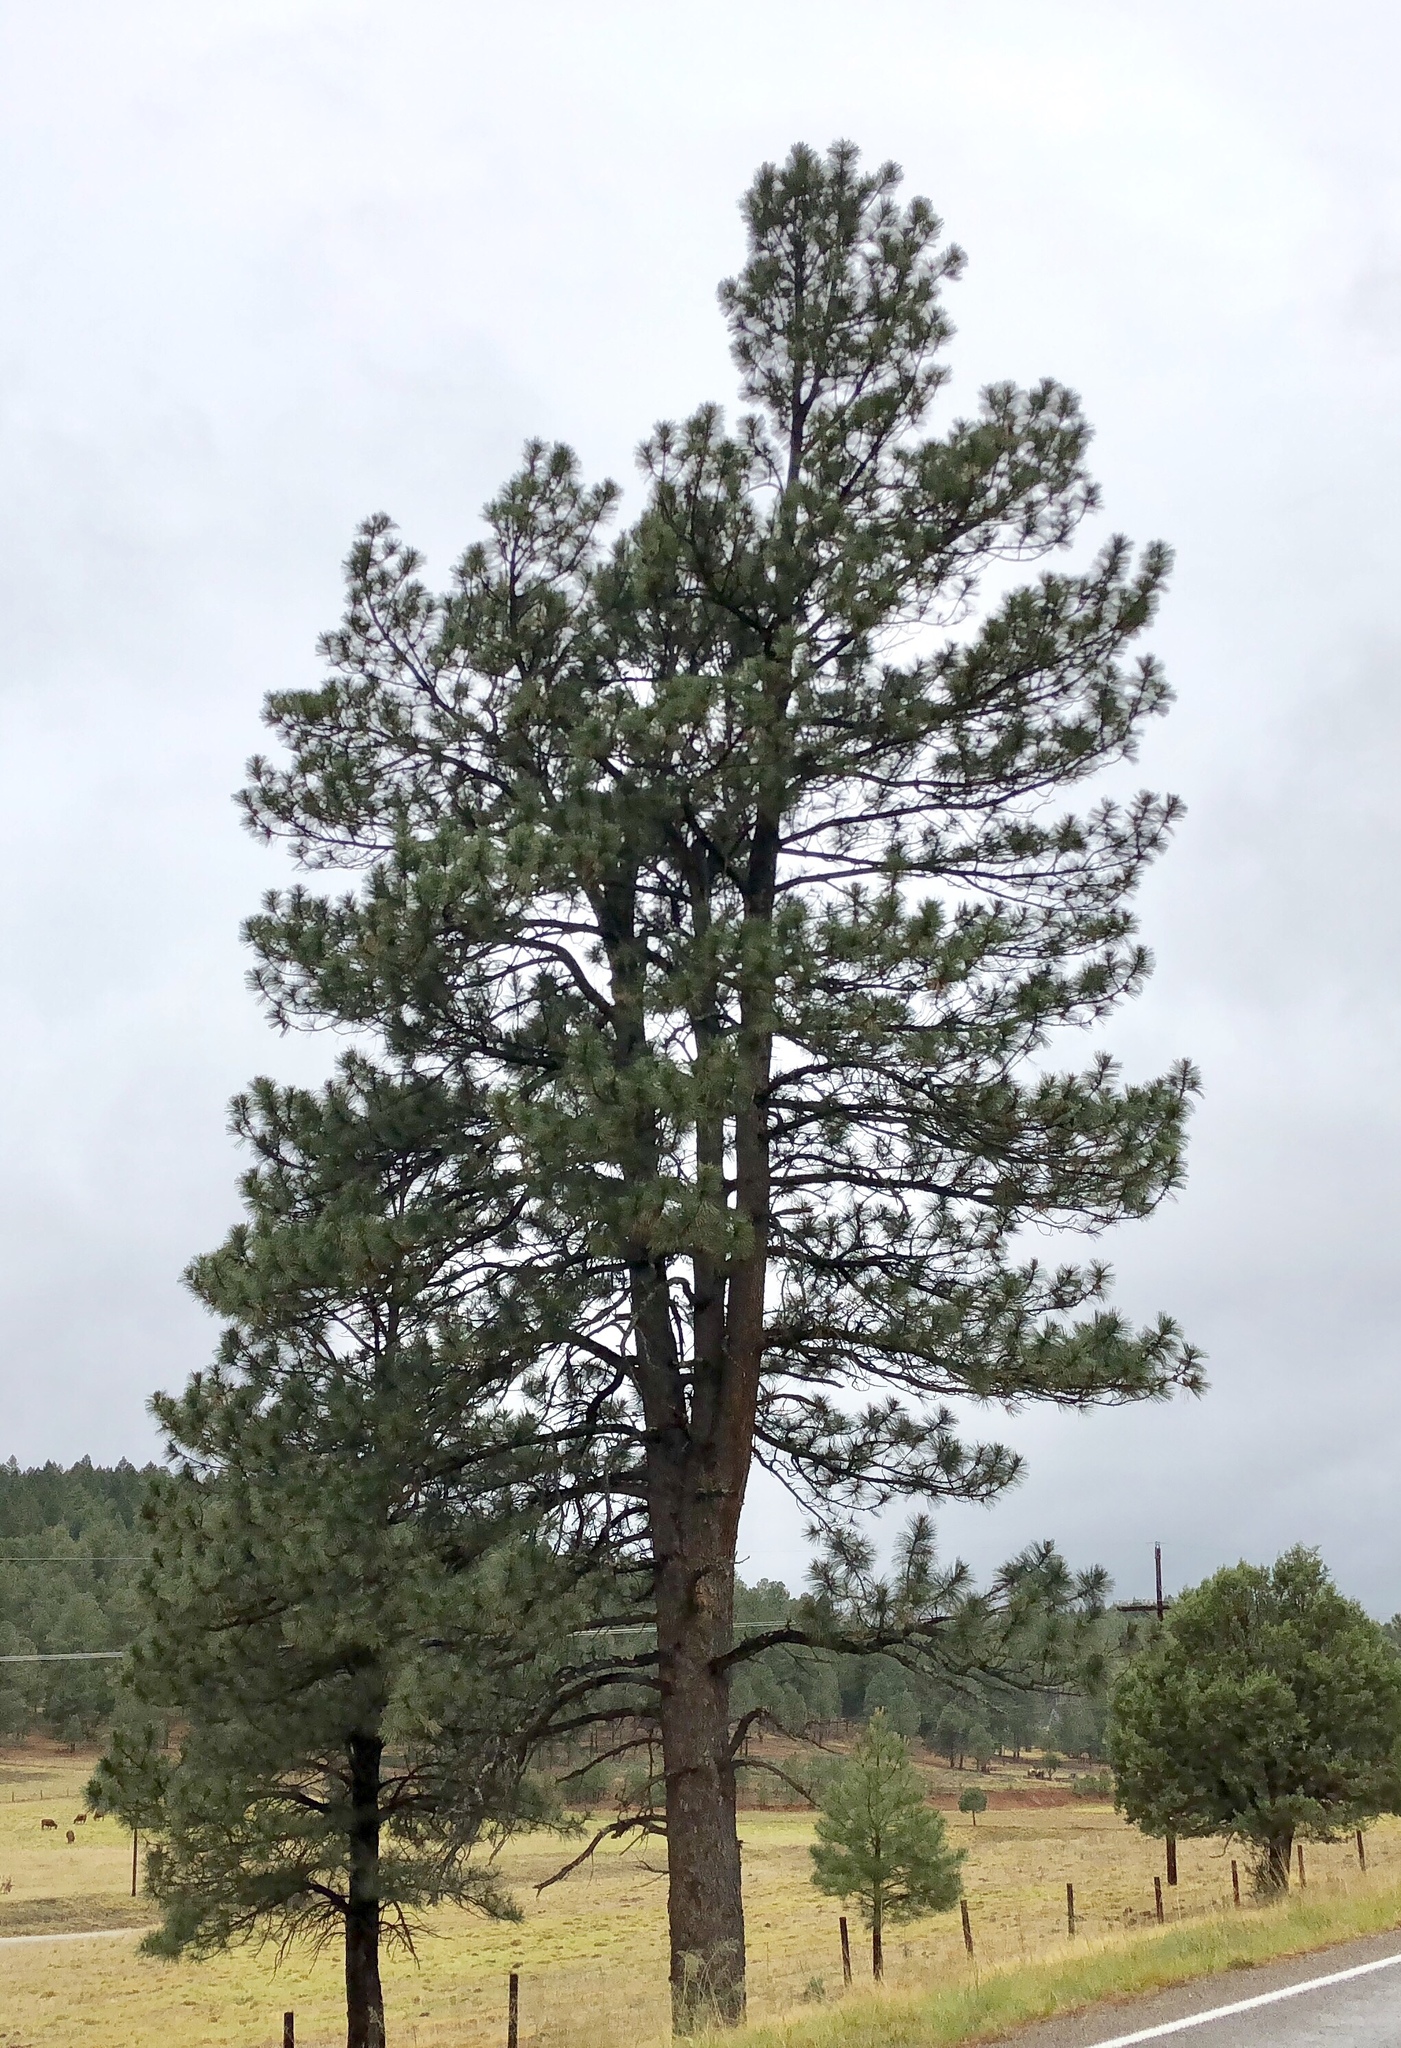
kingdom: Plantae
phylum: Tracheophyta
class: Pinopsida
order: Pinales
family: Pinaceae
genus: Pinus
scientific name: Pinus ponderosa
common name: Western yellow-pine
